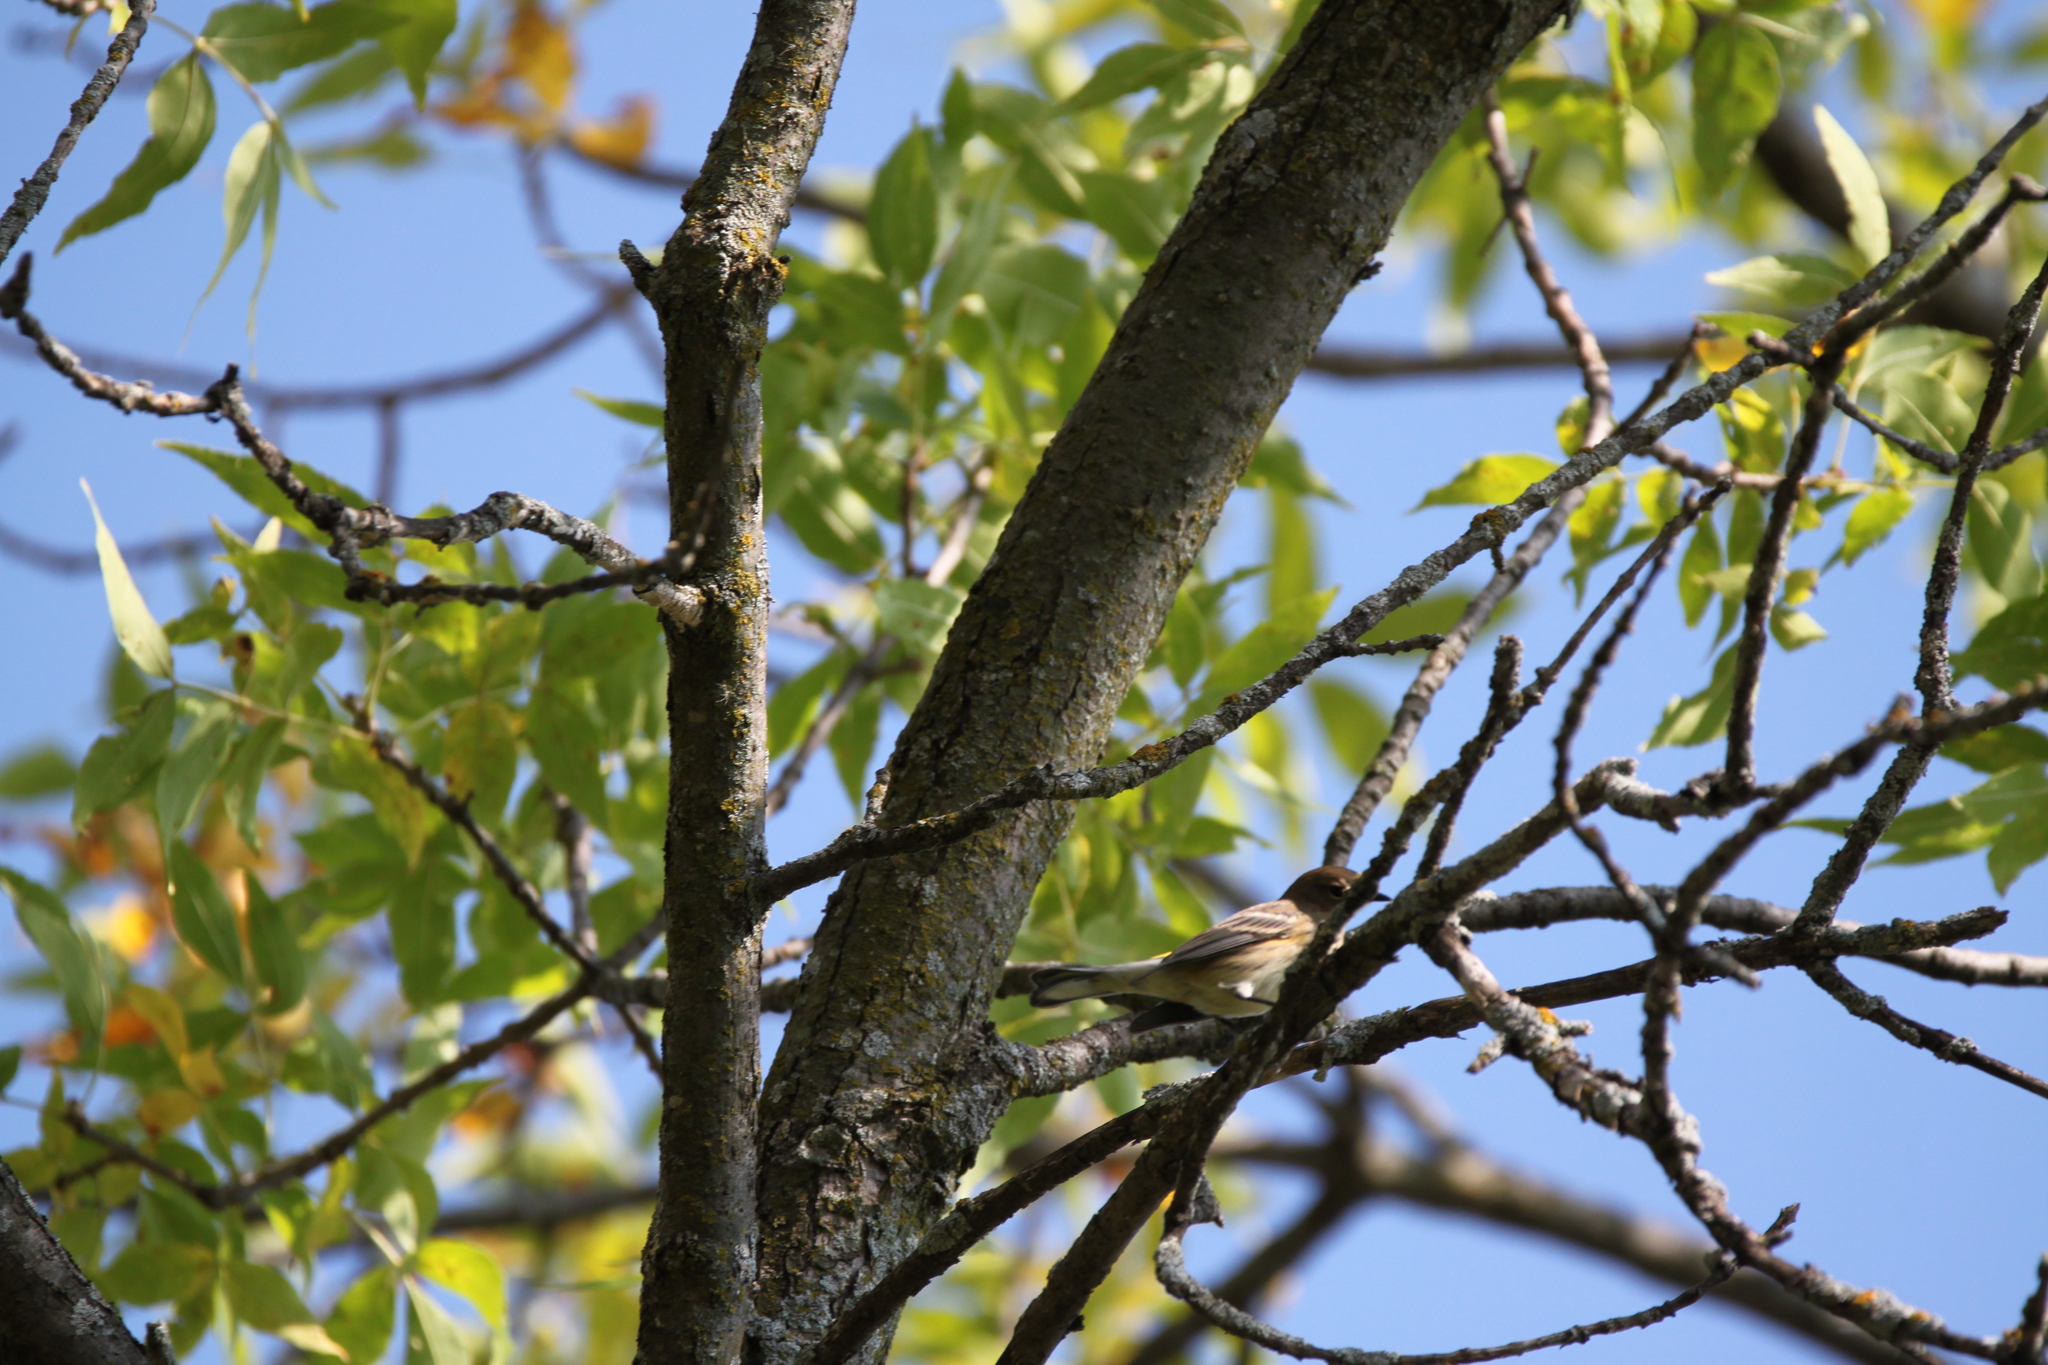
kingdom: Animalia
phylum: Chordata
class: Aves
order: Passeriformes
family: Parulidae
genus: Setophaga
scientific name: Setophaga coronata
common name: Myrtle warbler
